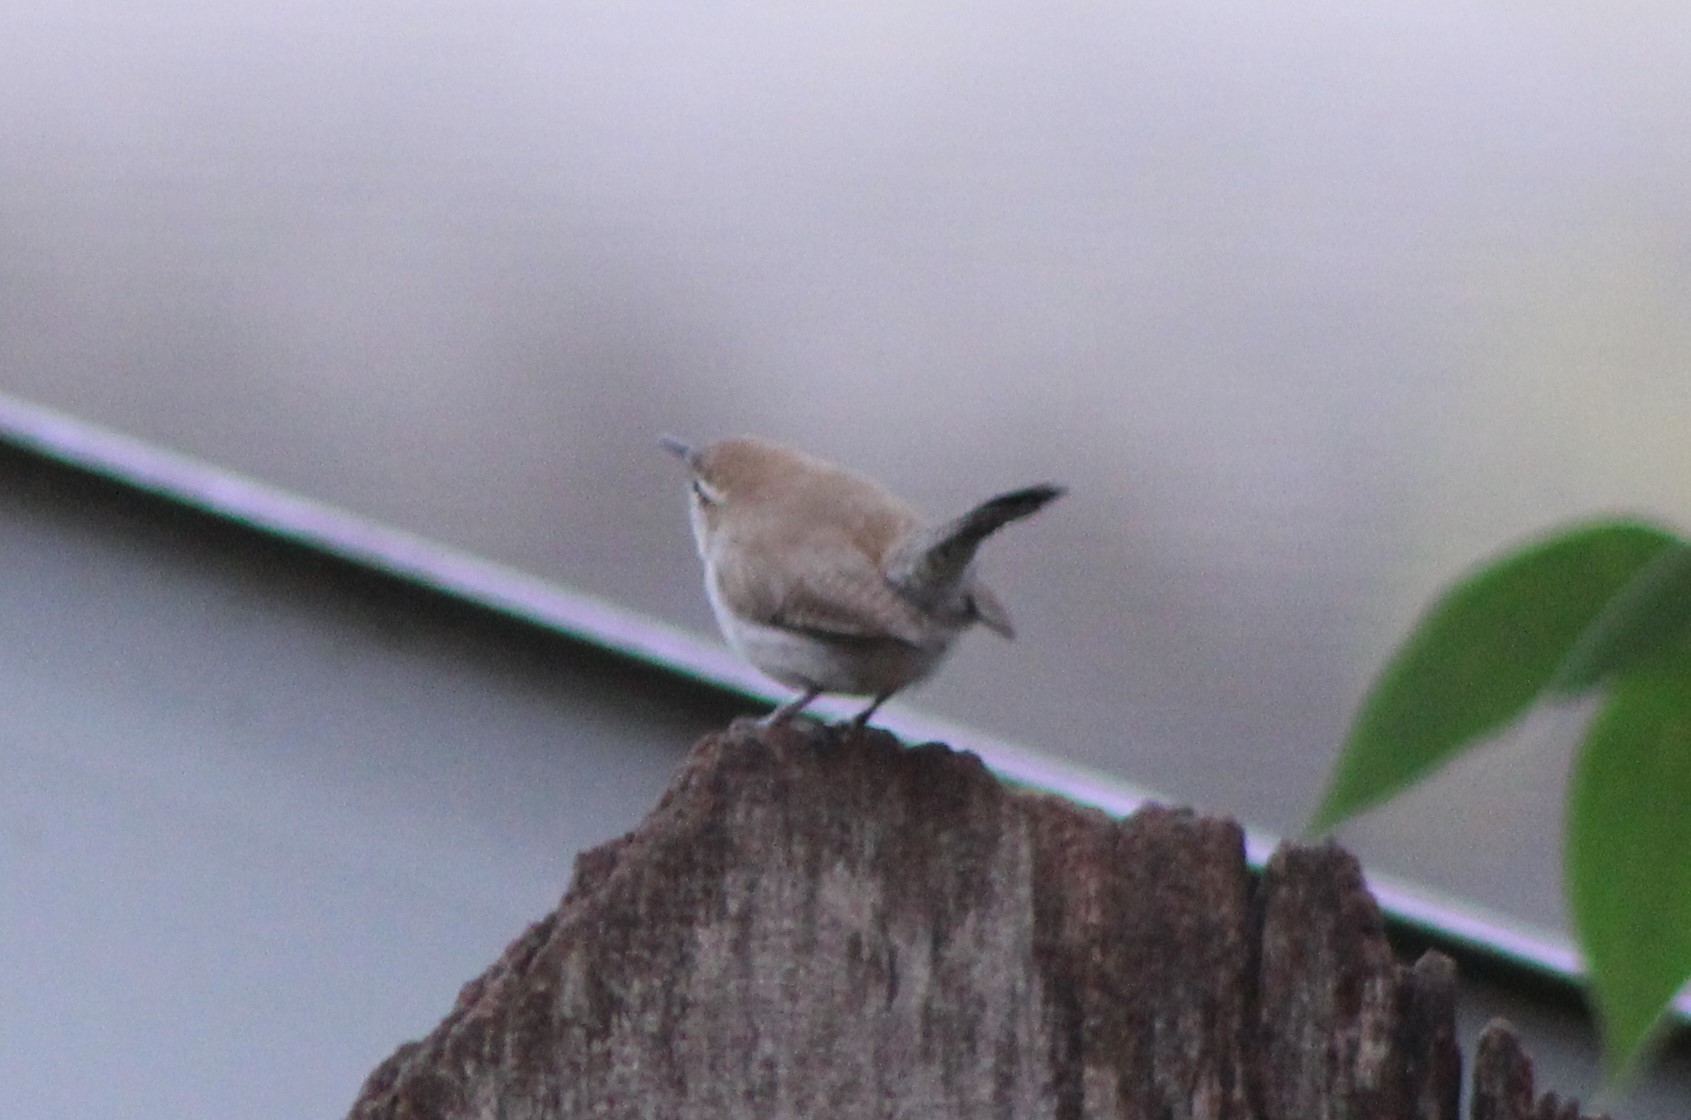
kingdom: Animalia
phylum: Chordata
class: Aves
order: Passeriformes
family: Troglodytidae
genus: Thryomanes
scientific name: Thryomanes bewickii
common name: Bewick's wren
